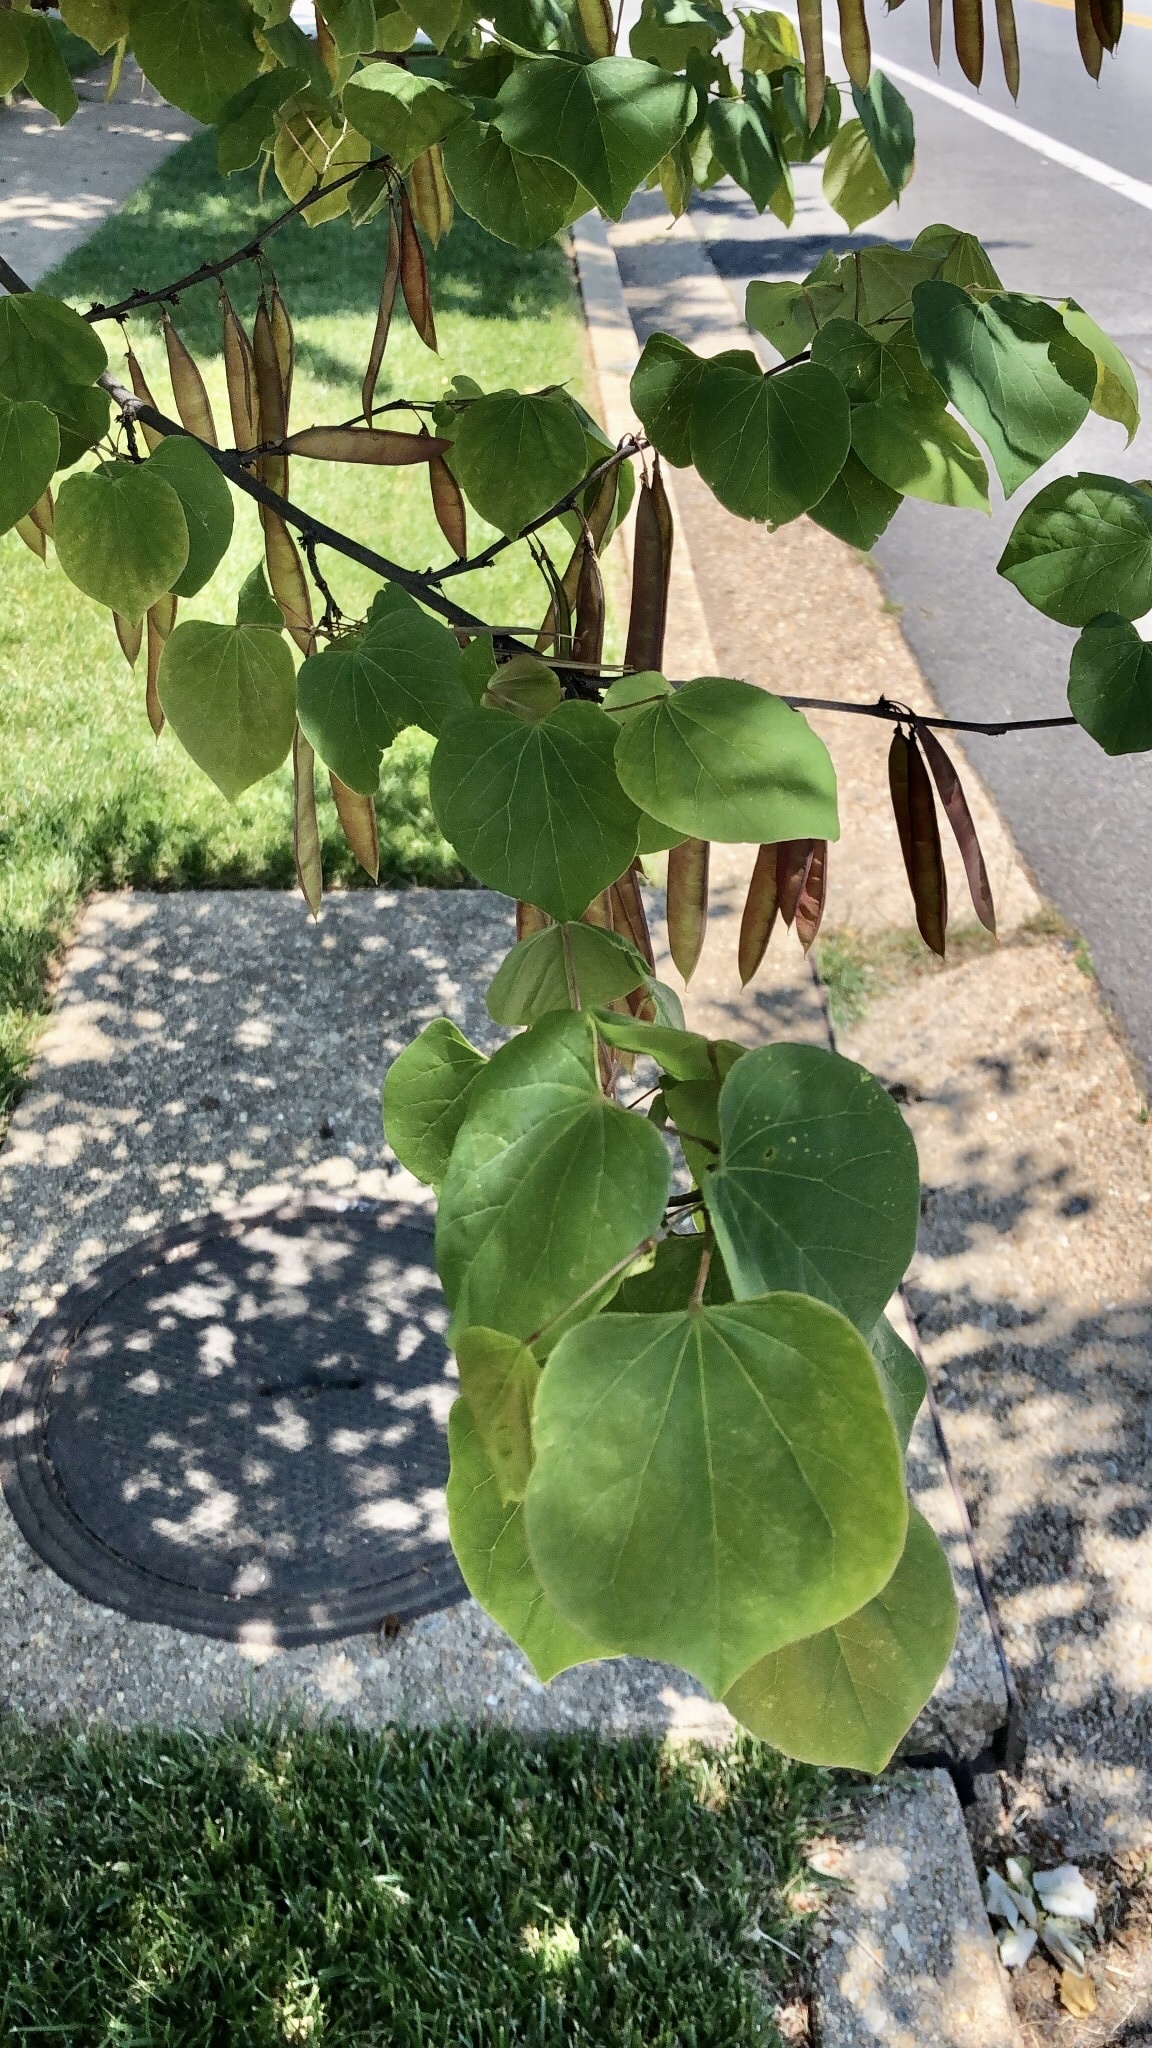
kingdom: Plantae
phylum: Tracheophyta
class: Magnoliopsida
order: Fabales
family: Fabaceae
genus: Cercis
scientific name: Cercis canadensis
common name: Eastern redbud
